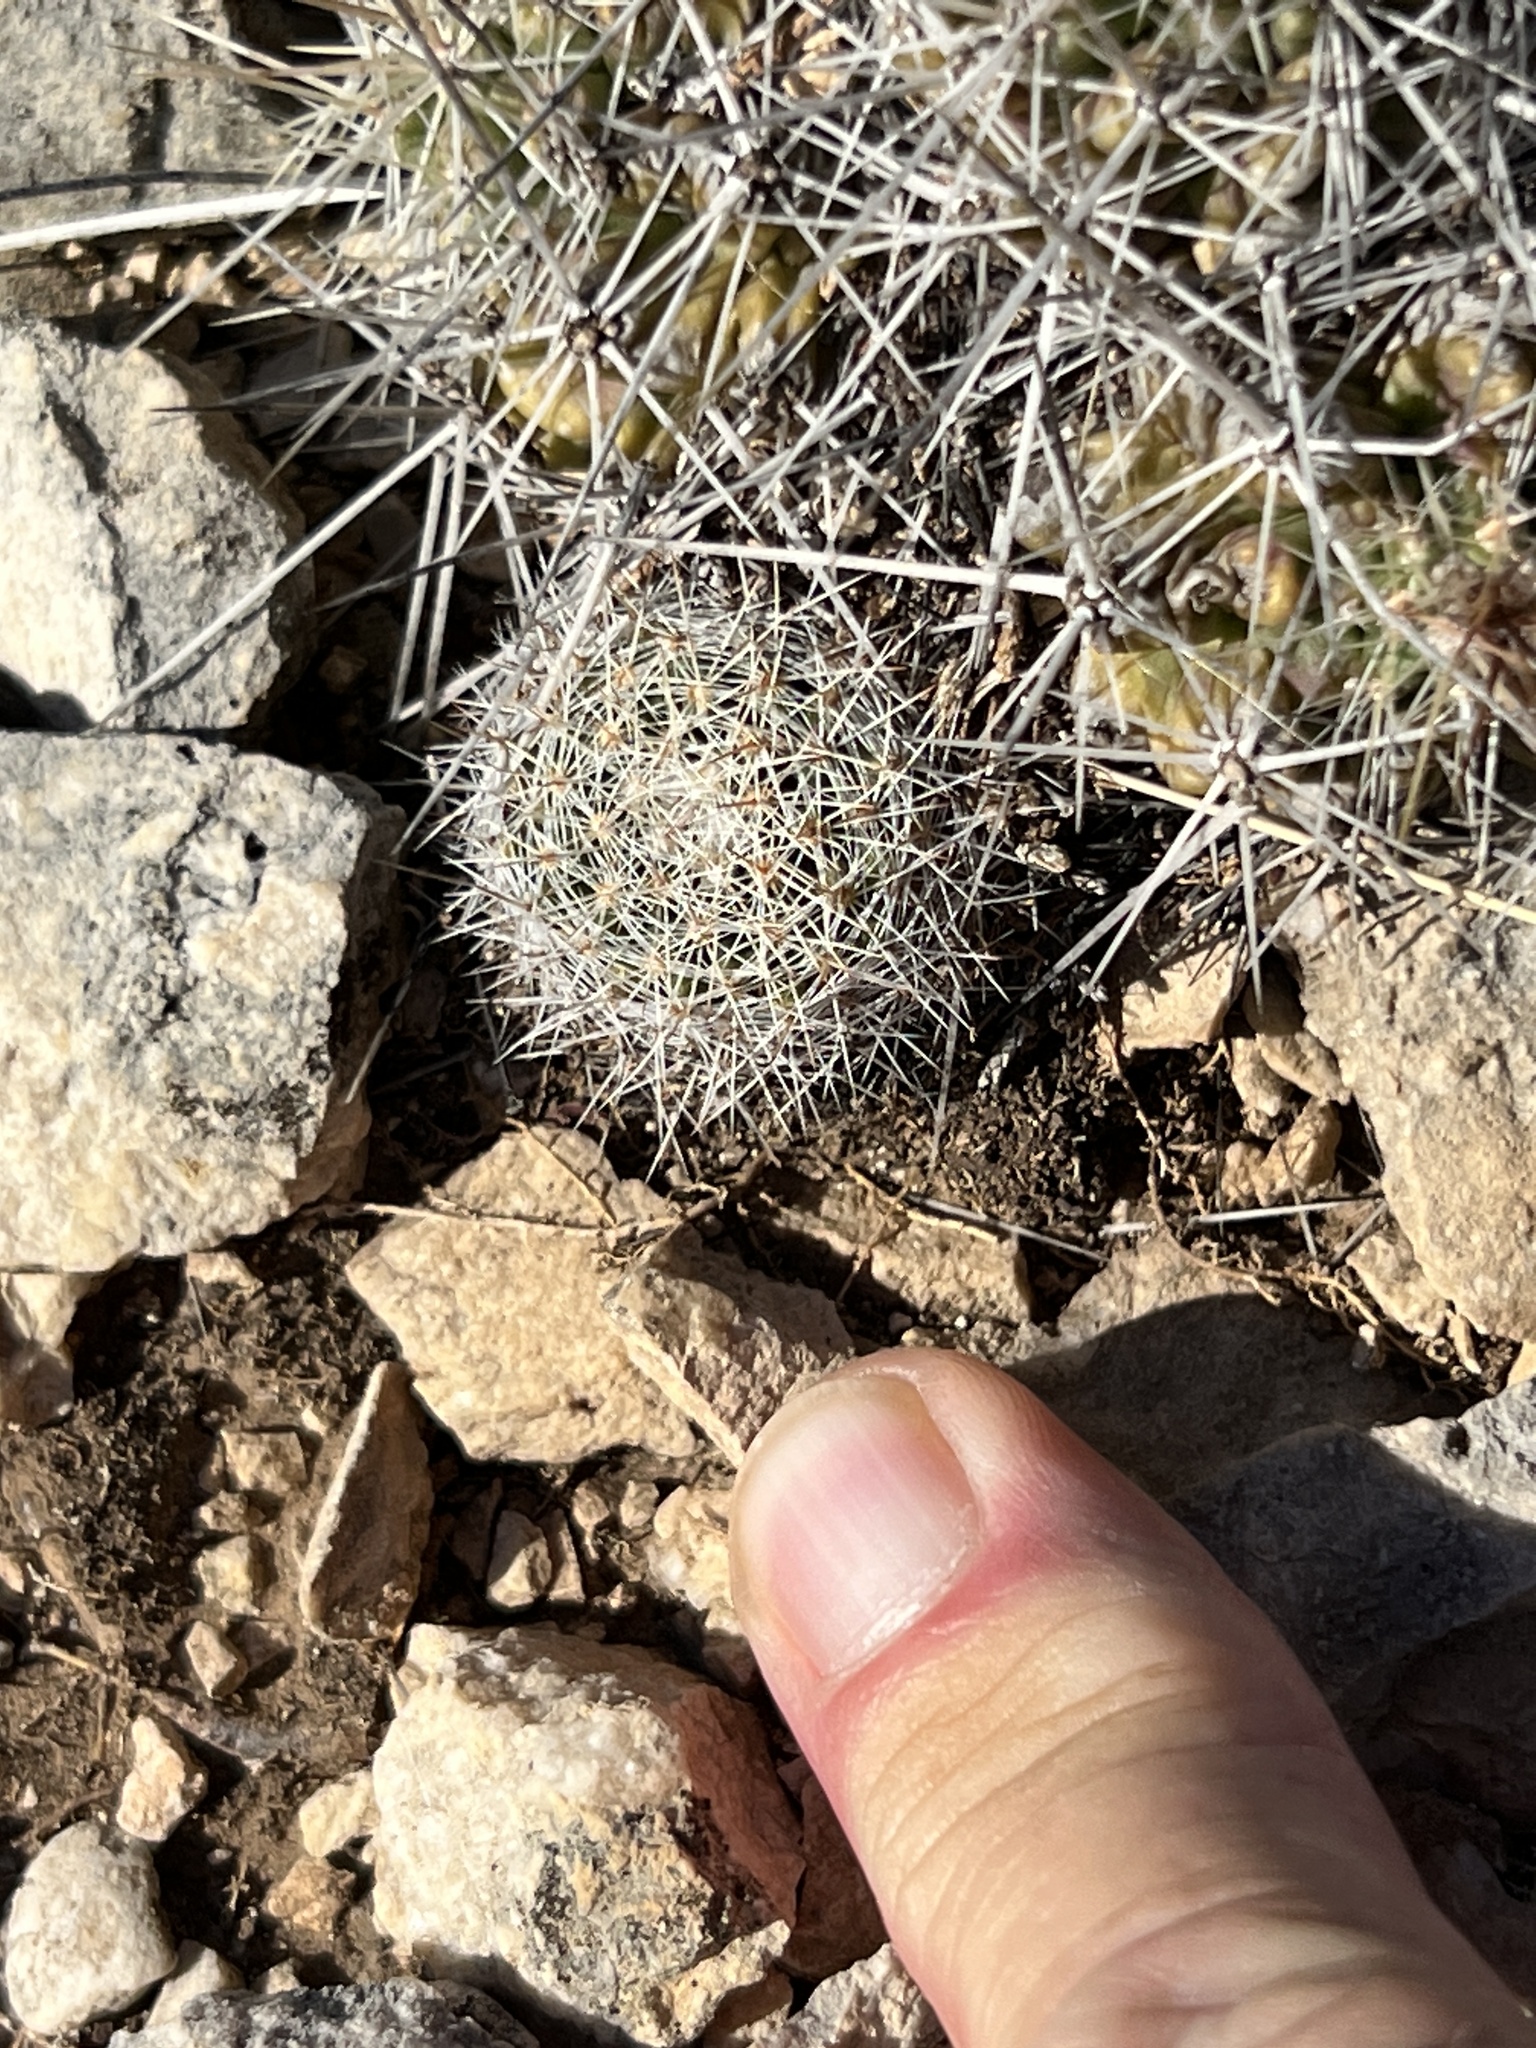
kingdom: Plantae
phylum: Tracheophyta
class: Magnoliopsida
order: Caryophyllales
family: Cactaceae
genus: Mammillaria
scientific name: Mammillaria heyderi
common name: Little nipple cactus
